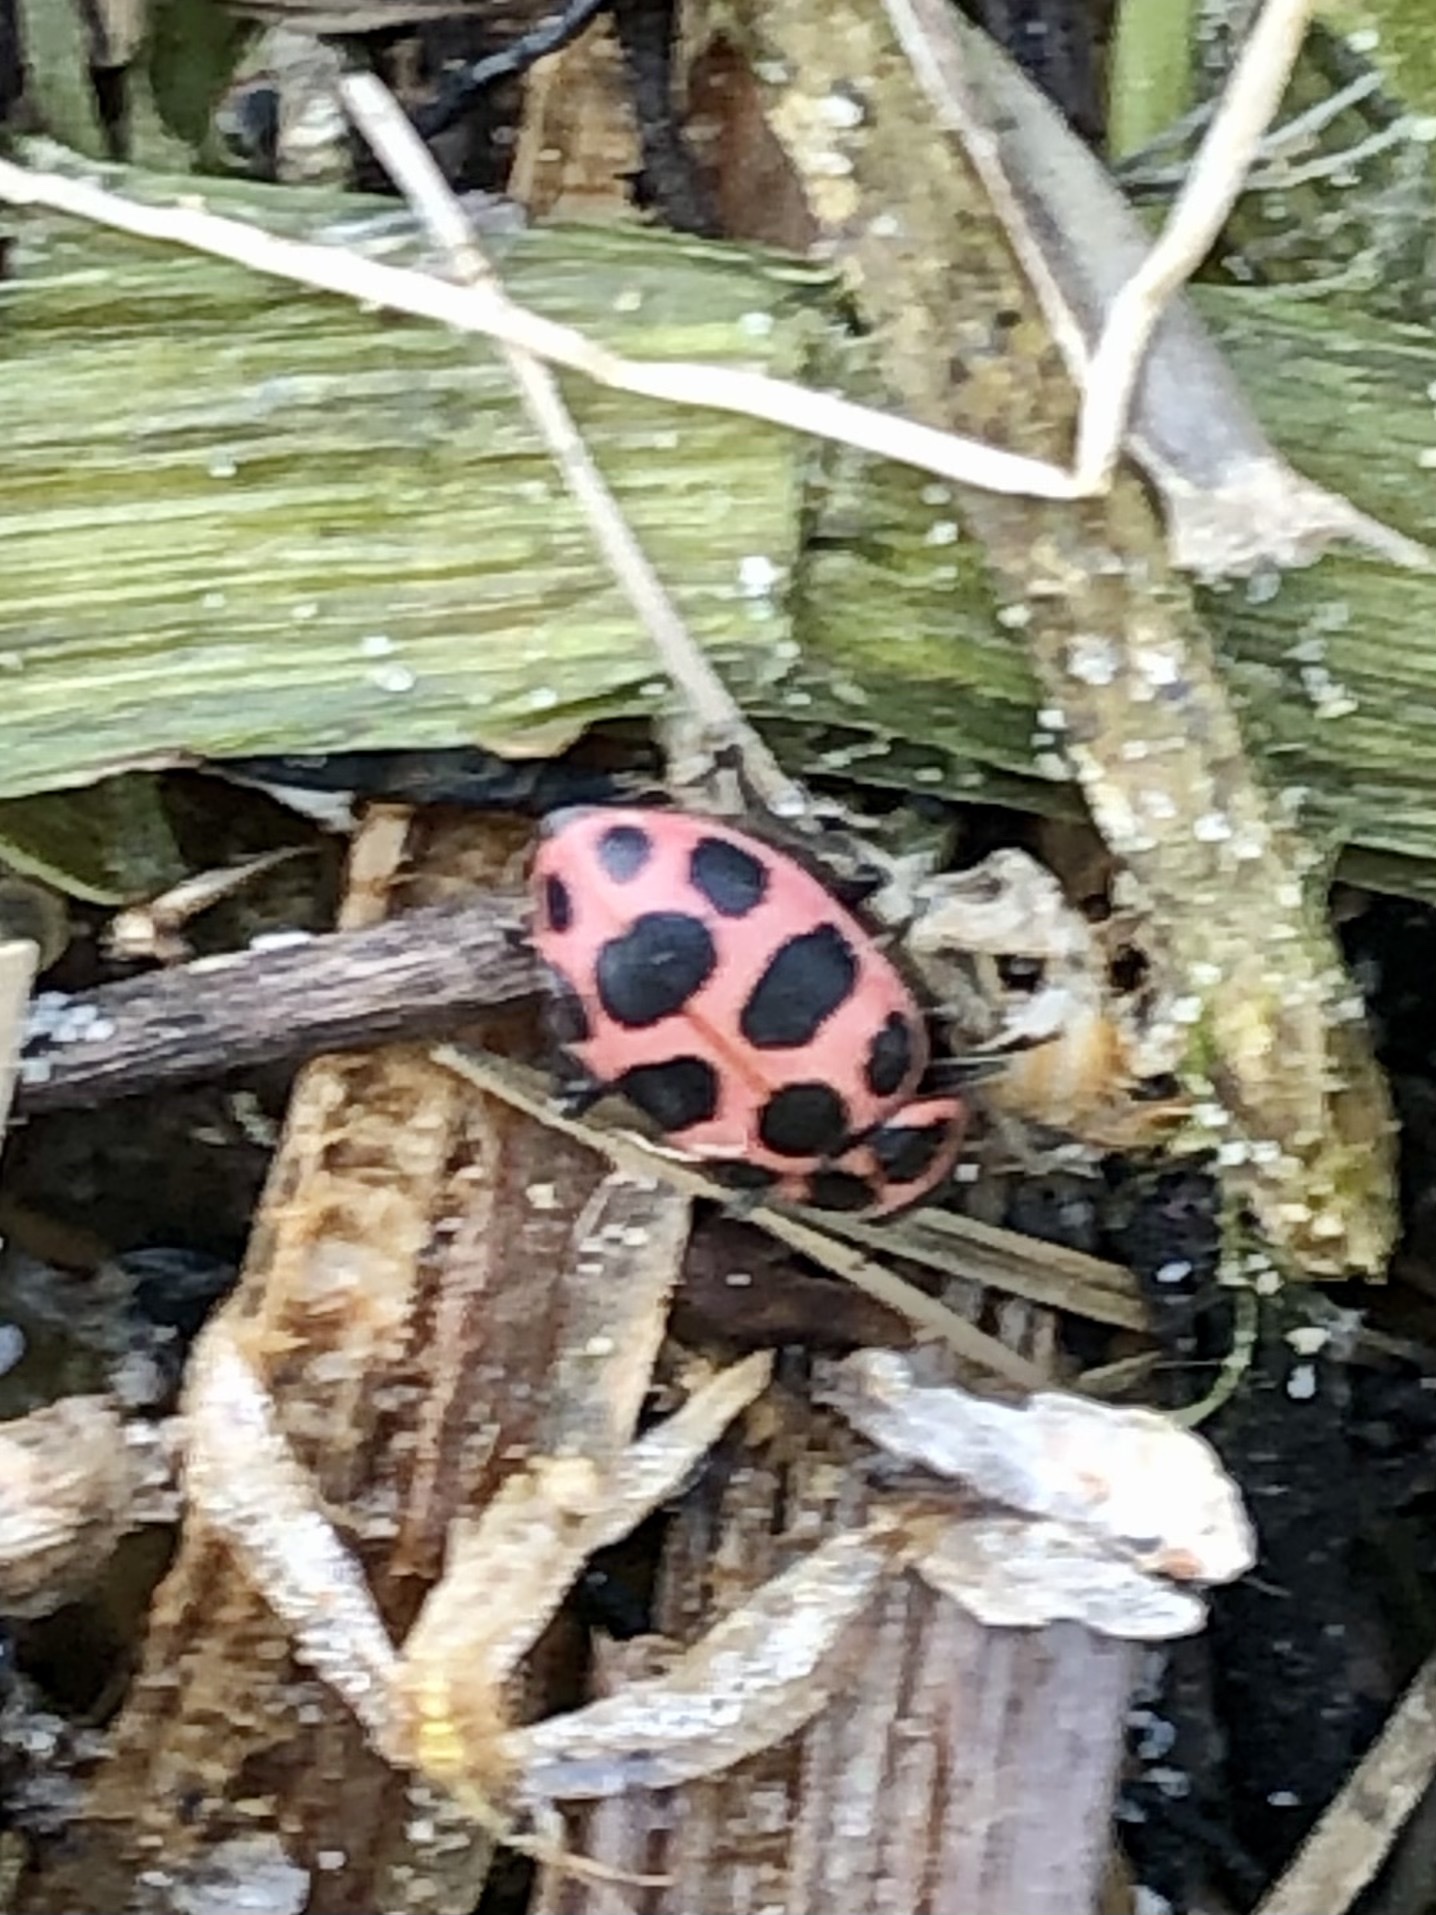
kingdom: Animalia
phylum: Arthropoda
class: Insecta
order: Coleoptera
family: Coccinellidae
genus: Coleomegilla
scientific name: Coleomegilla maculata
